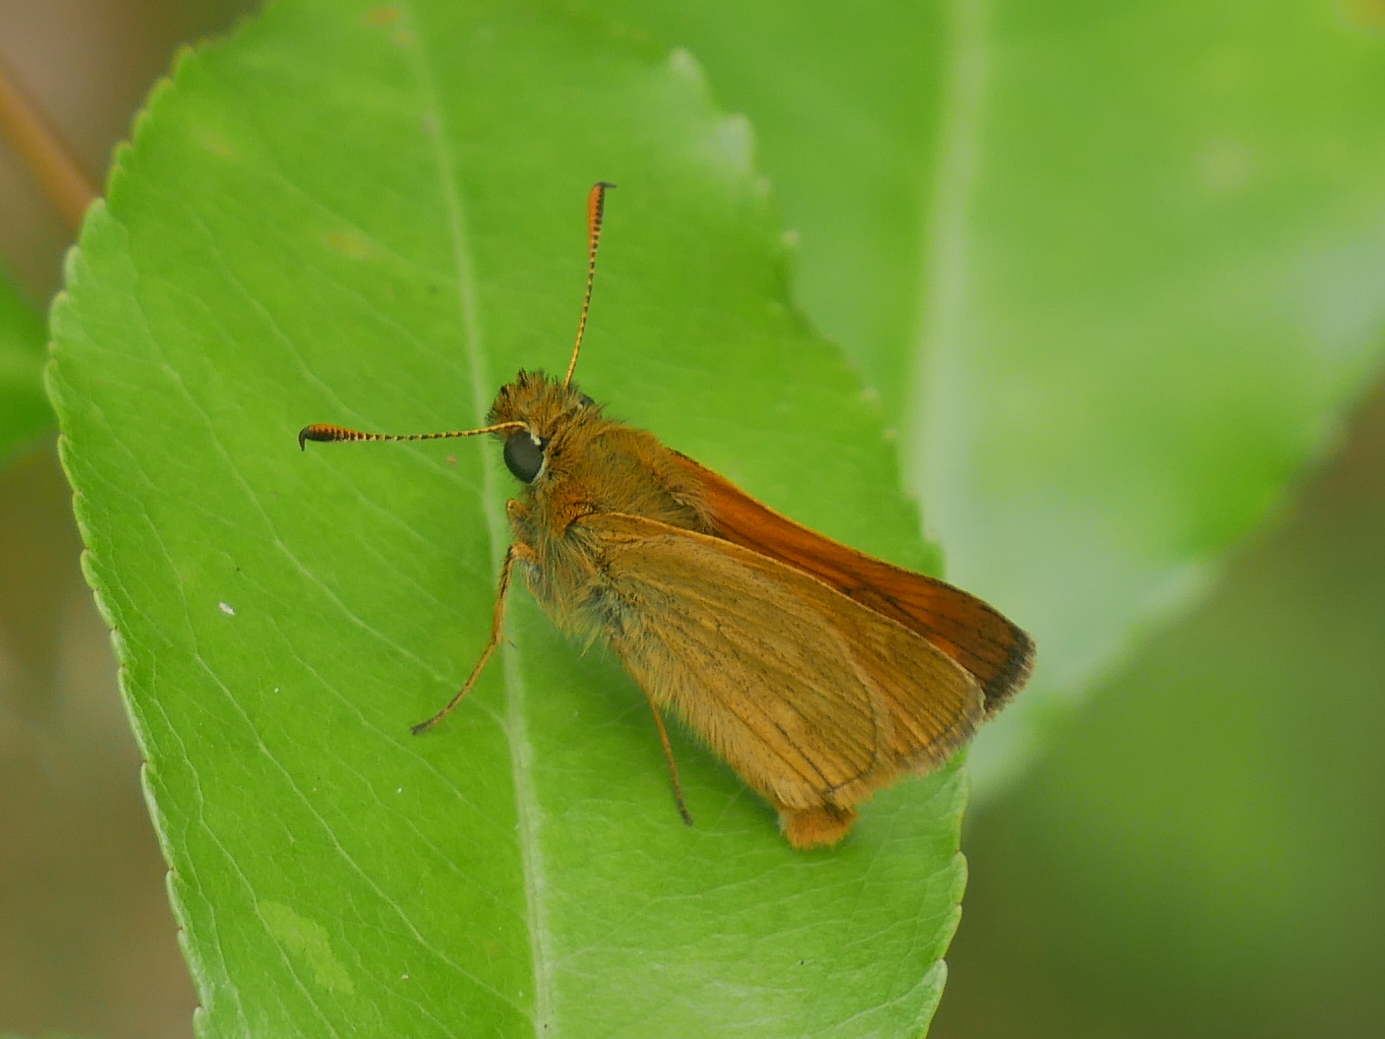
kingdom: Animalia
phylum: Arthropoda
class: Insecta
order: Lepidoptera
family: Hesperiidae
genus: Ochlodes
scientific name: Ochlodes venata
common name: Large skipper
